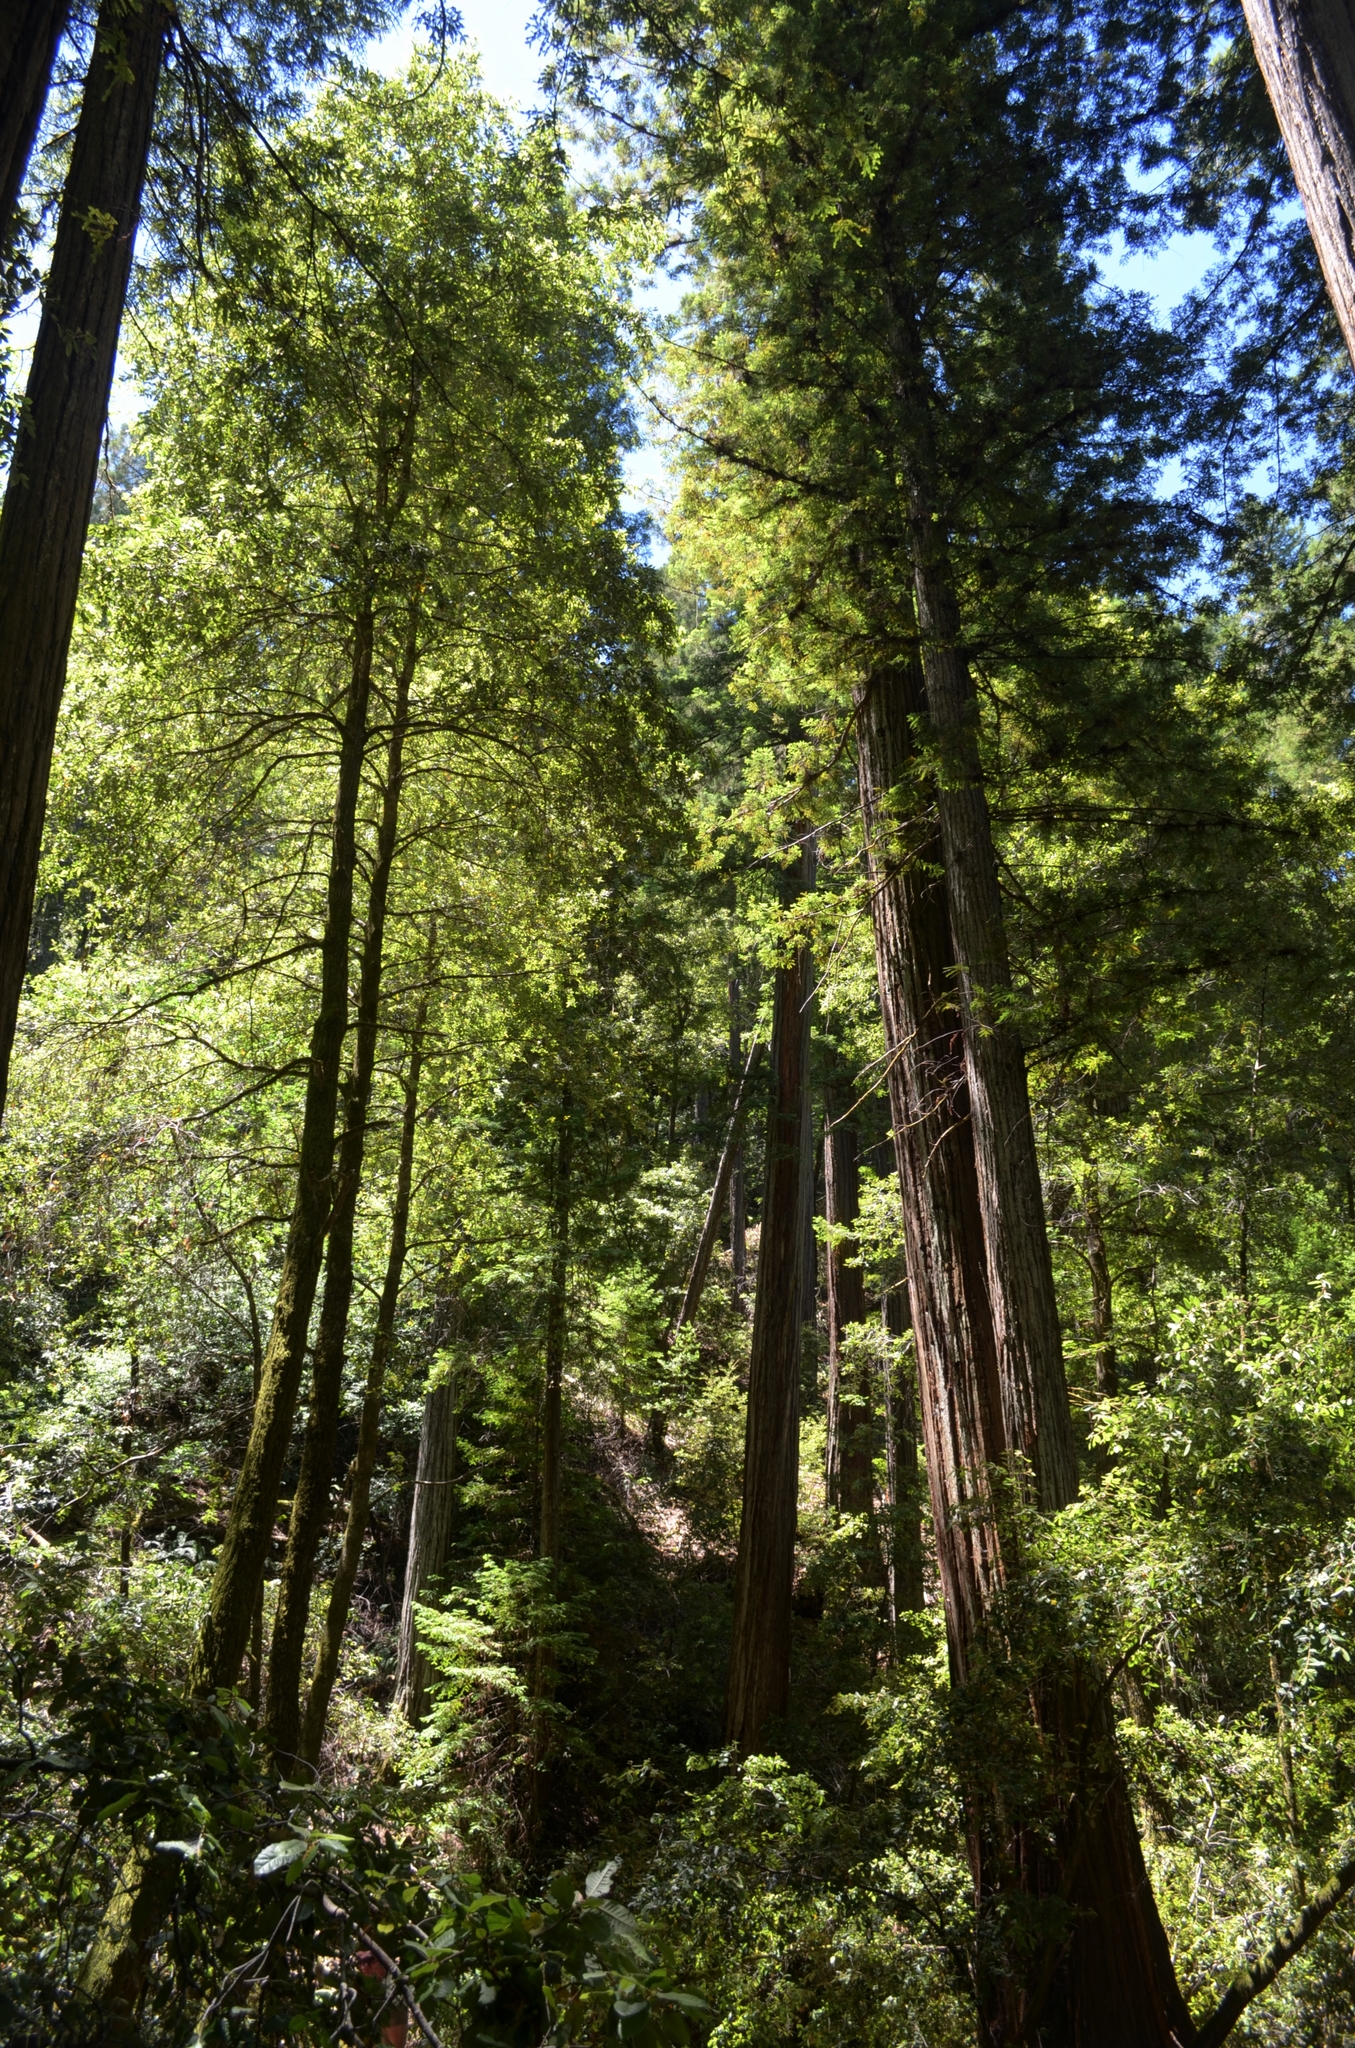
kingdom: Plantae
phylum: Tracheophyta
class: Pinopsida
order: Pinales
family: Cupressaceae
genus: Sequoia
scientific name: Sequoia sempervirens
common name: Coast redwood
